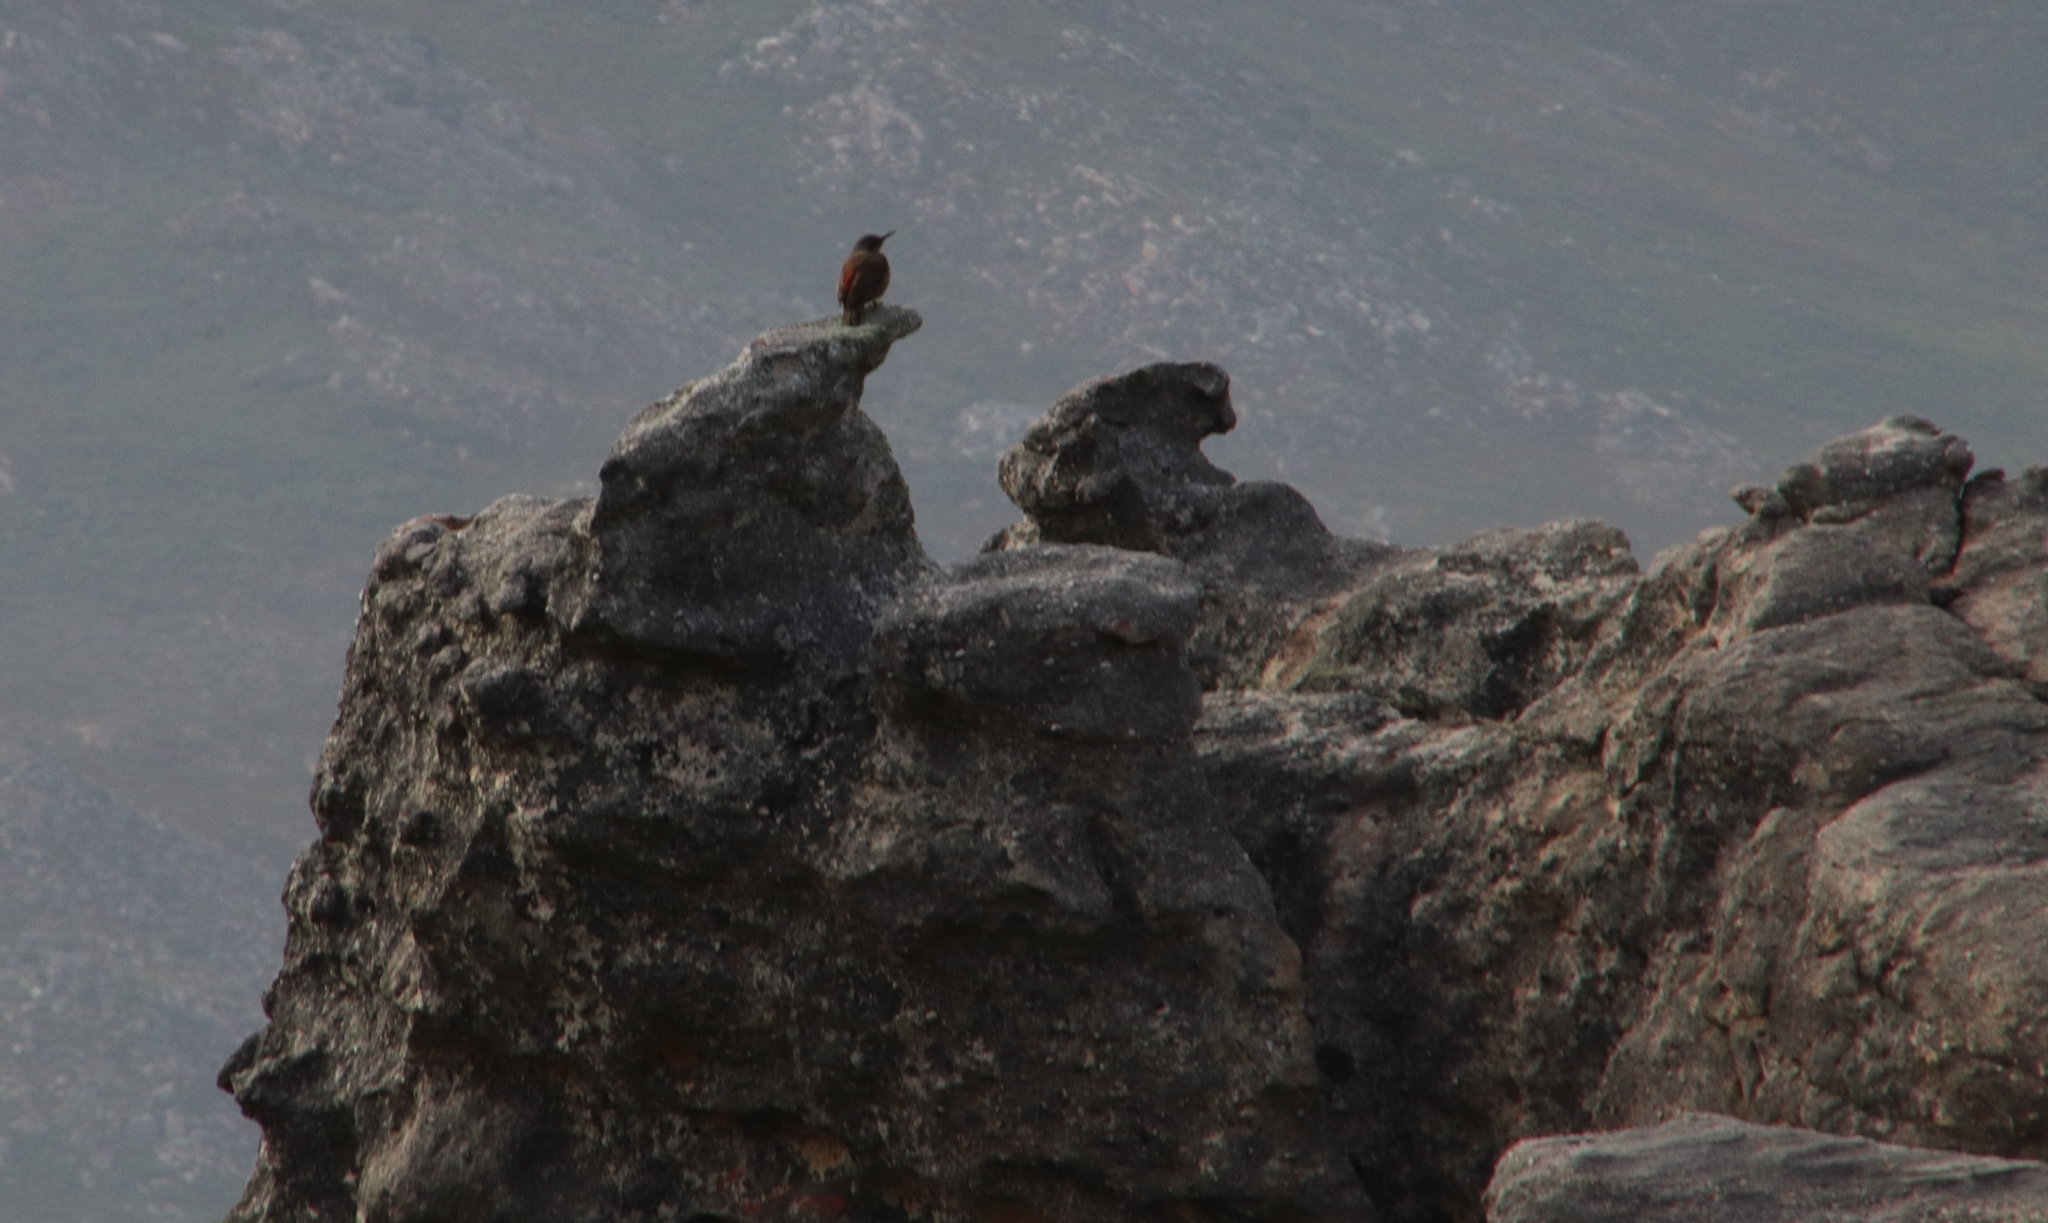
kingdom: Animalia
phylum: Chordata
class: Aves
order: Piciformes
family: Picidae
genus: Geocolaptes
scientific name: Geocolaptes olivaceus
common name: Ground woodpecker
